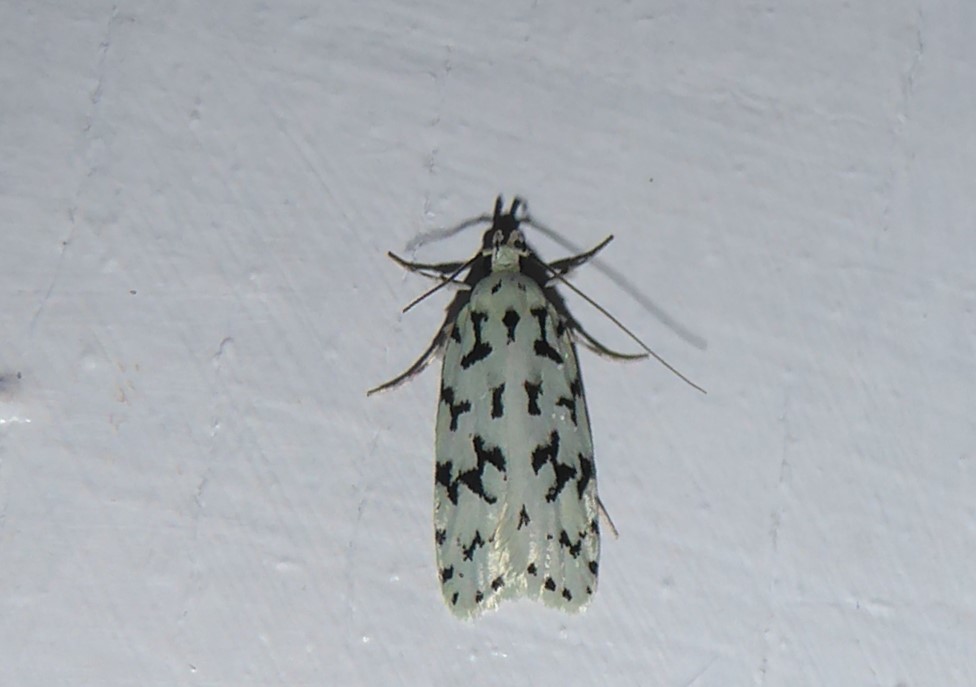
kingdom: Animalia
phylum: Arthropoda
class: Insecta
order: Lepidoptera
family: Oecophoridae
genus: Izatha
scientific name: Izatha huttoni
